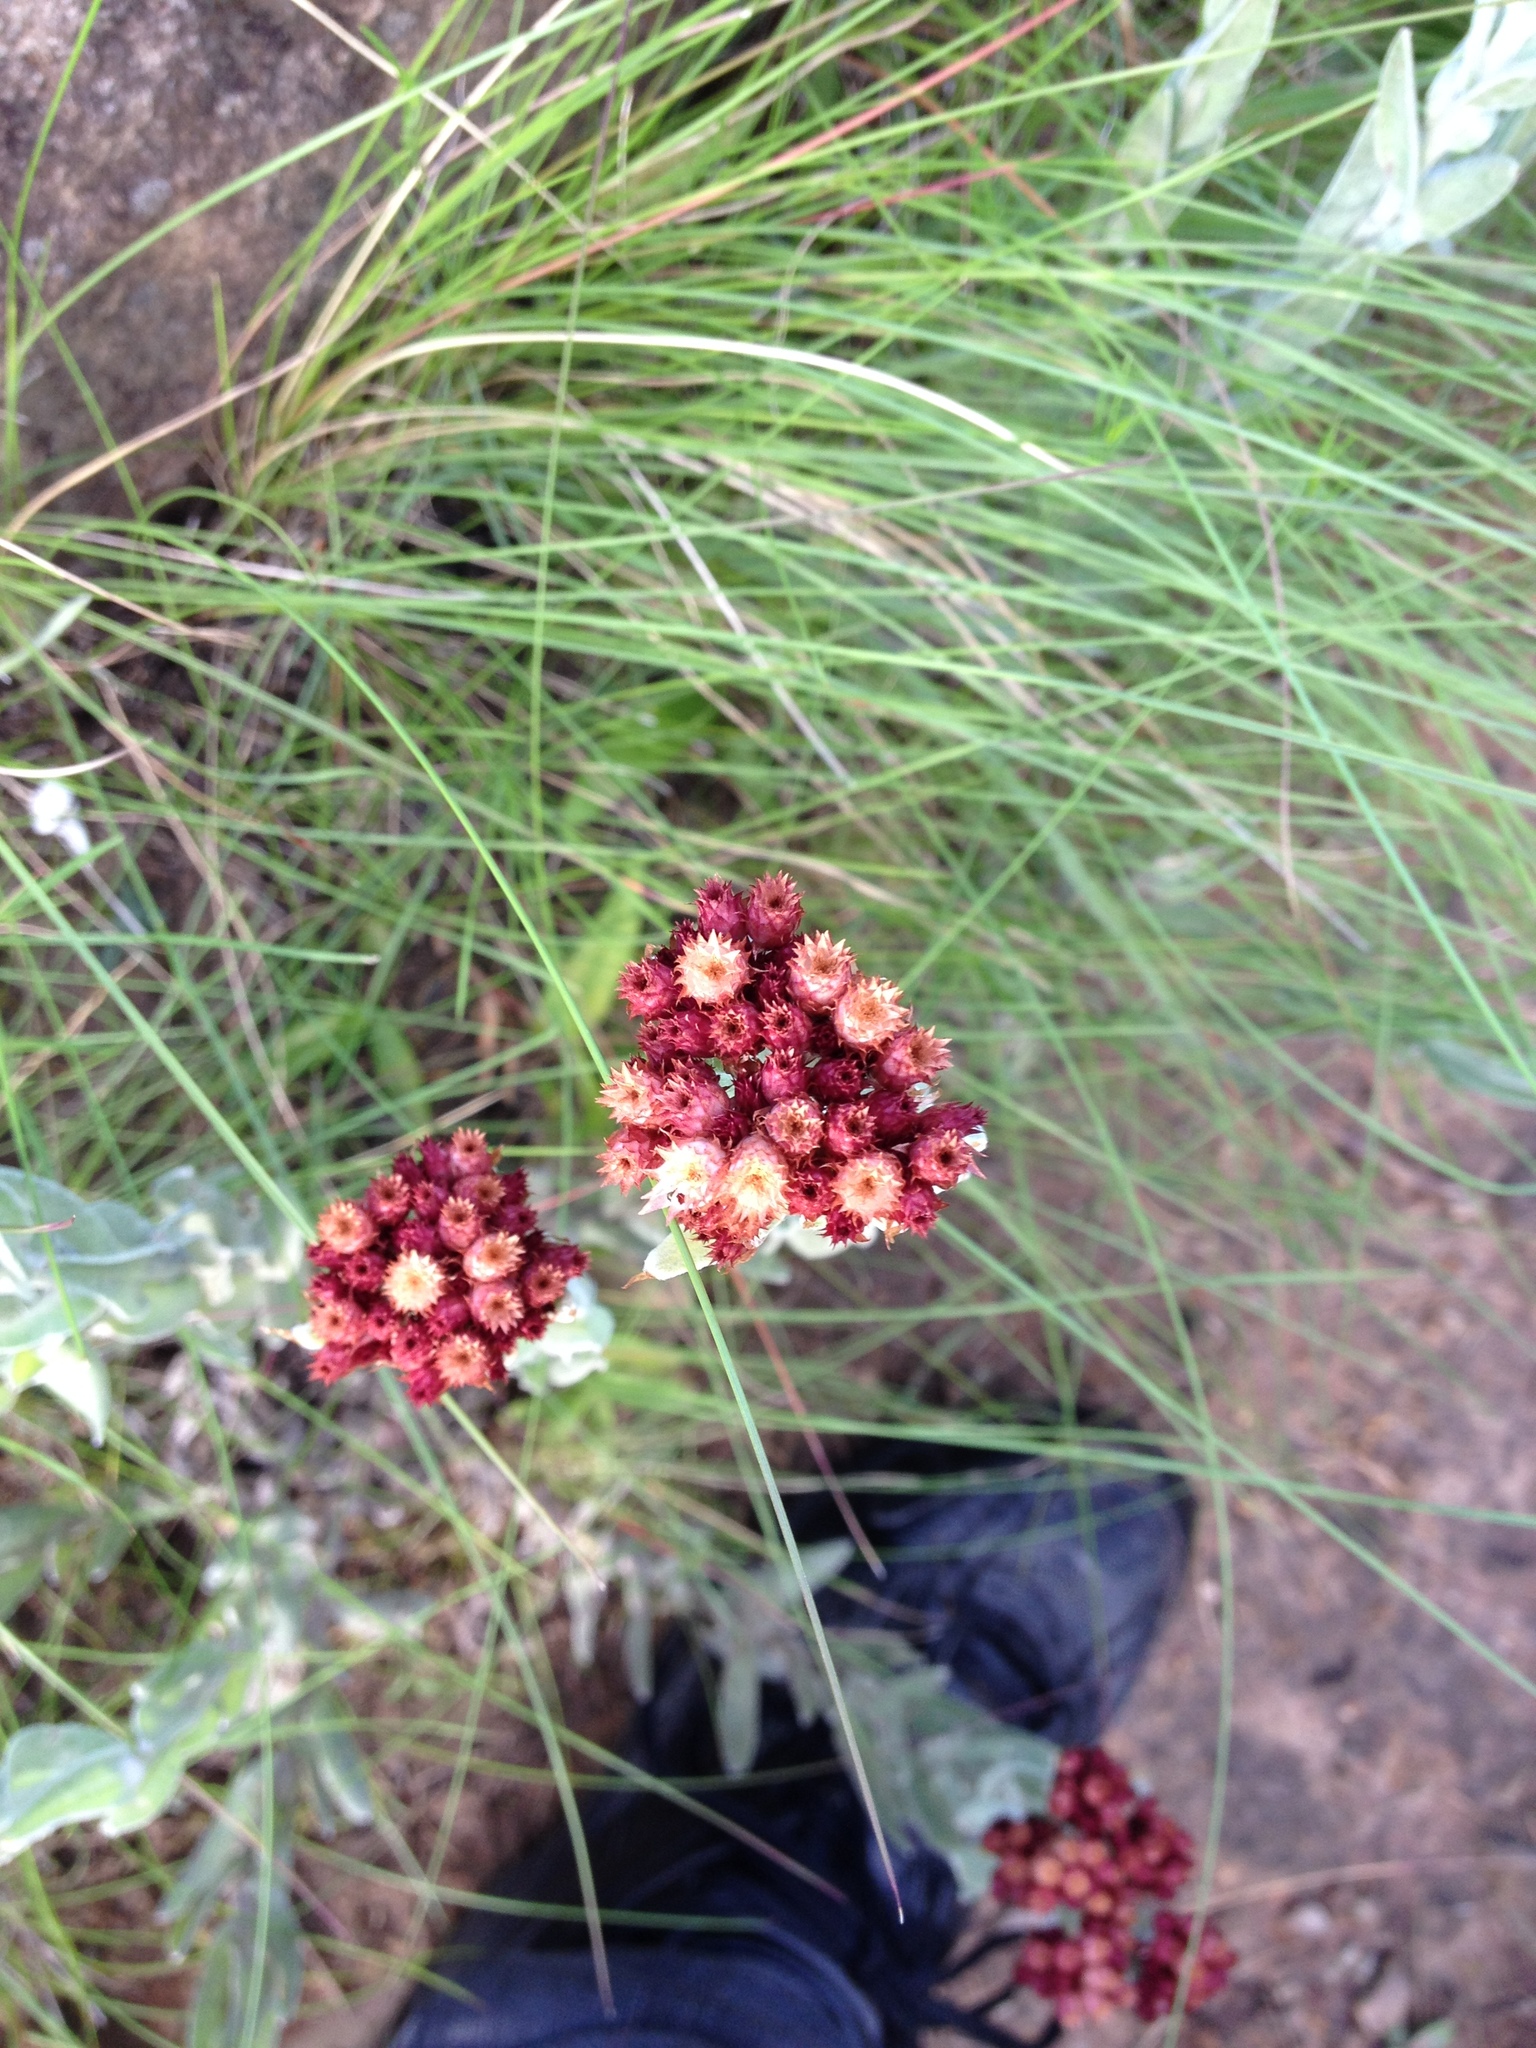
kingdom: Plantae
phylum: Tracheophyta
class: Magnoliopsida
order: Asterales
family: Asteraceae
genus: Helichrysum
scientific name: Helichrysum appendiculatum
